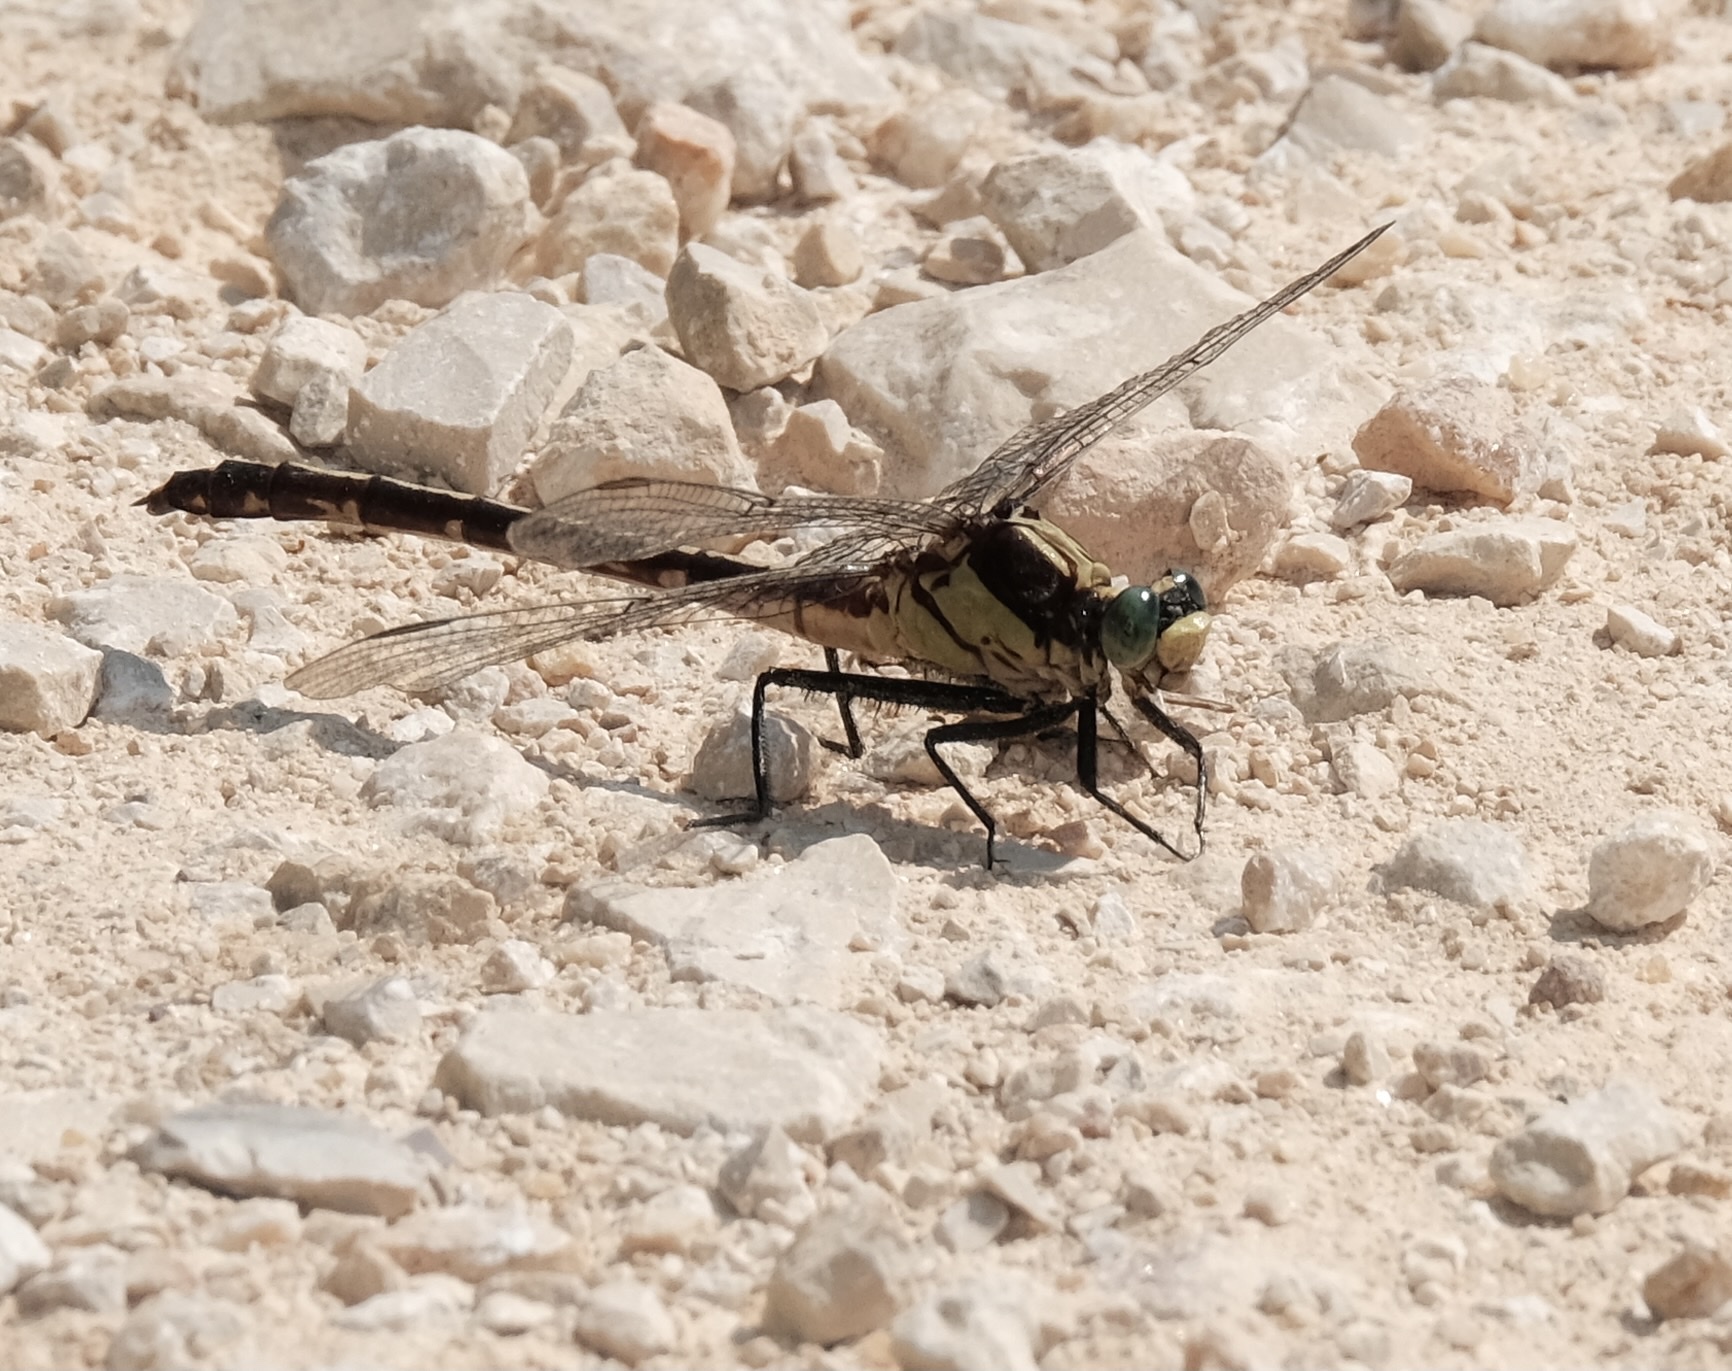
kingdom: Animalia
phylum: Arthropoda
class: Insecta
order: Odonata
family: Gomphidae
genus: Dromogomphus
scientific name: Dromogomphus spinosus
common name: Black-shouldered spinyleg
